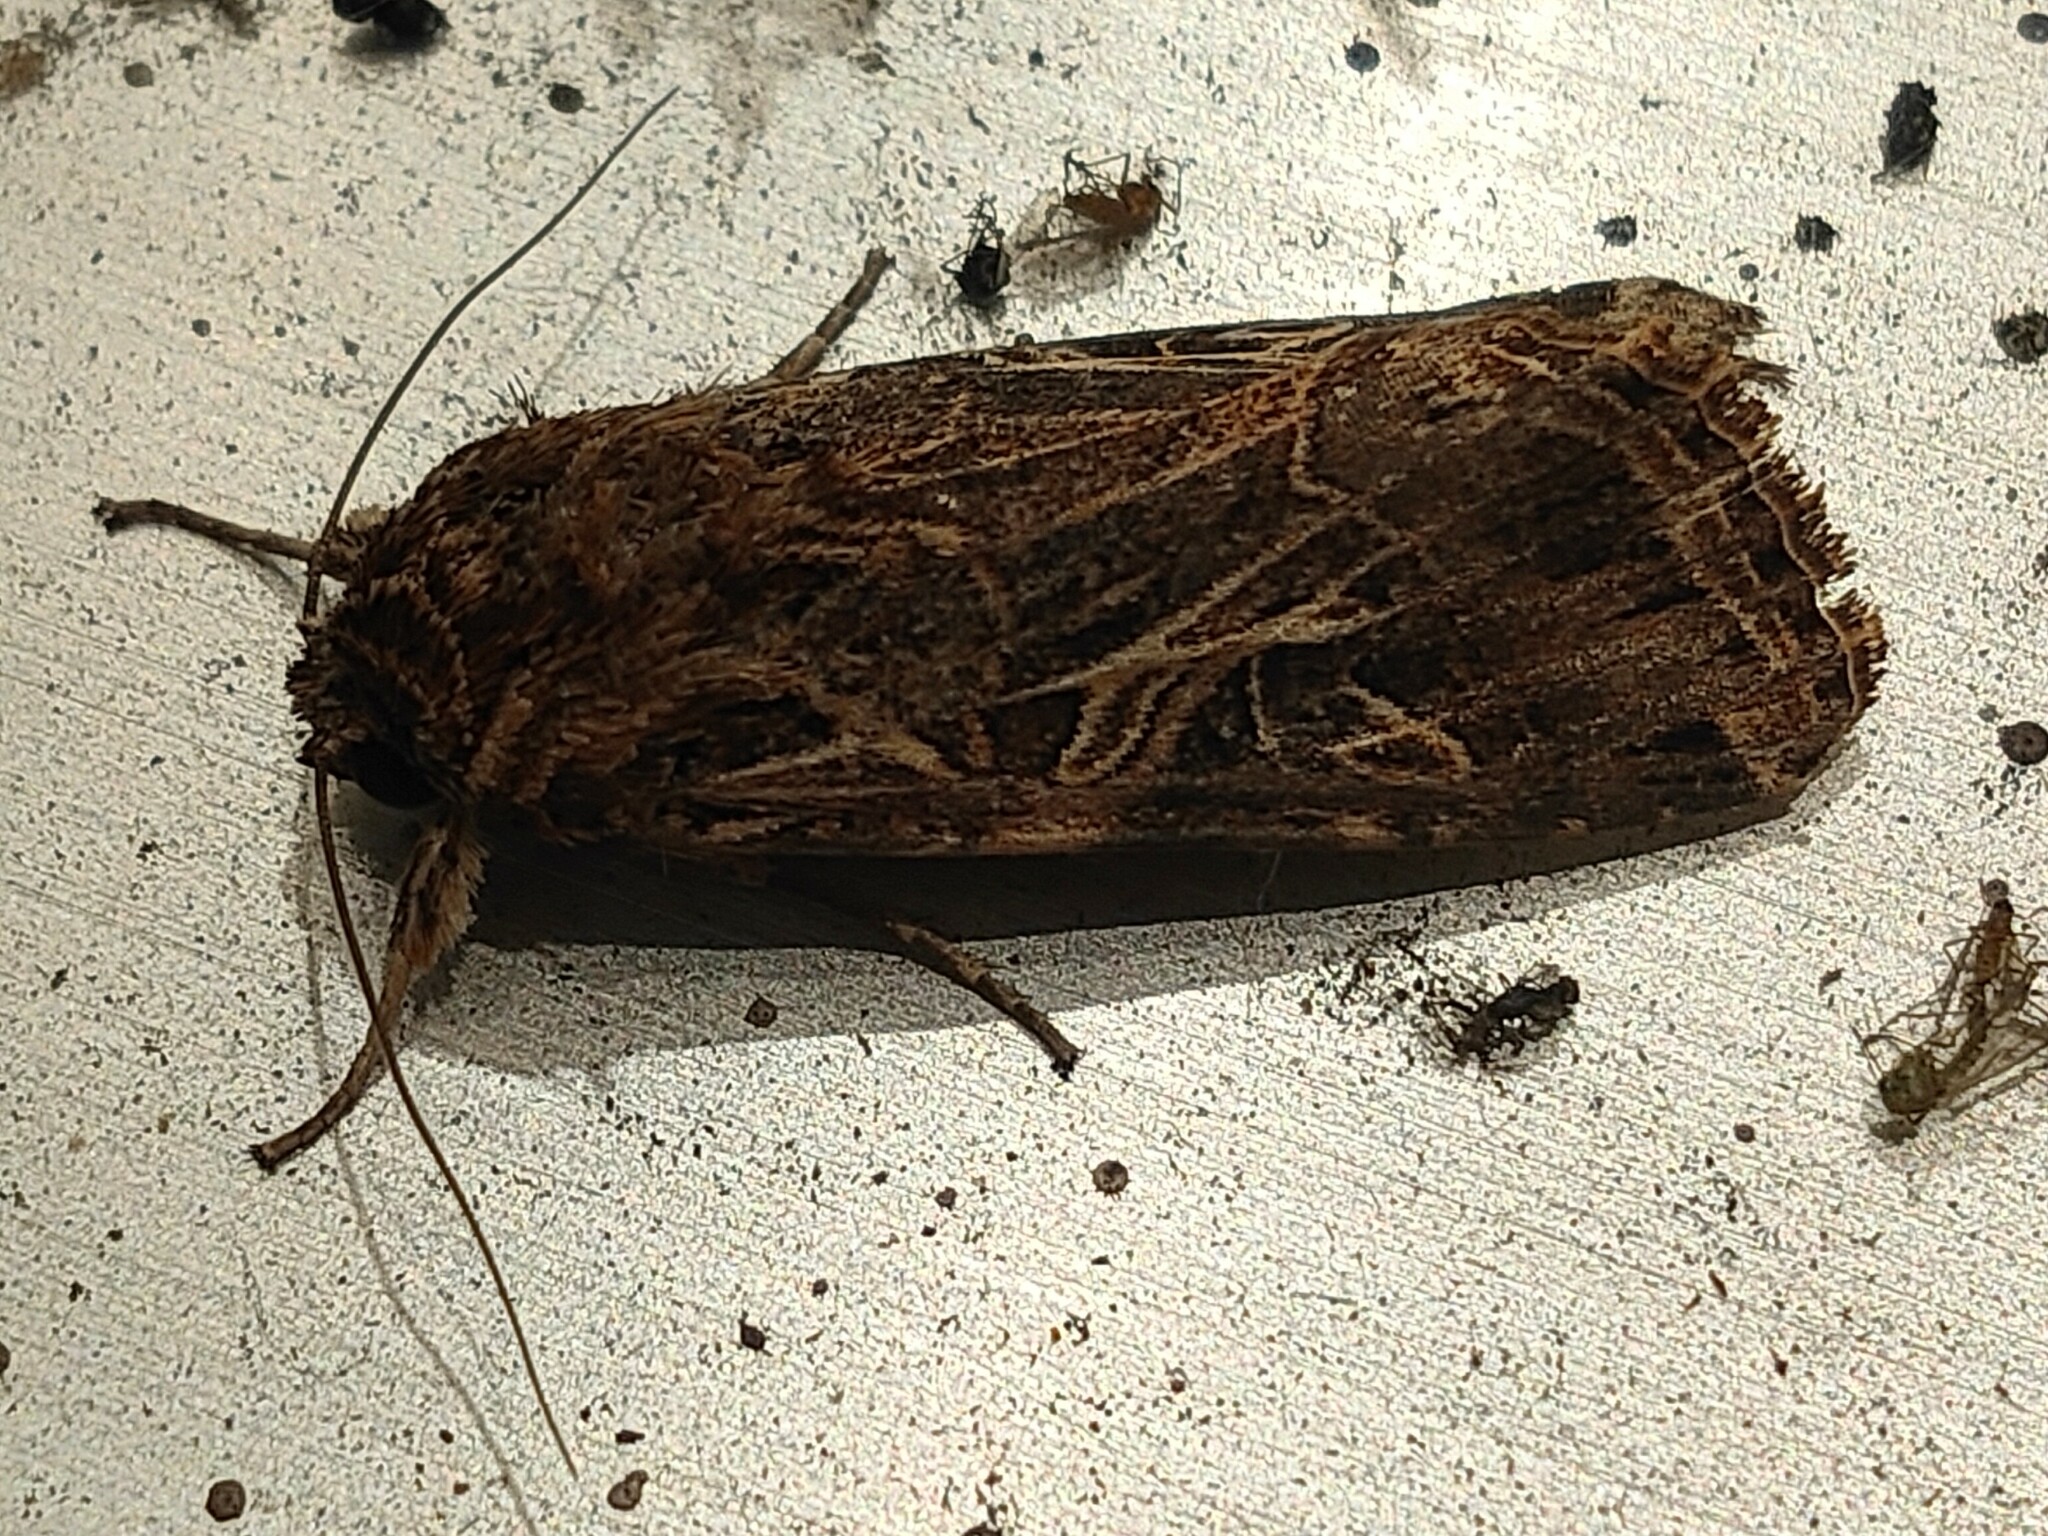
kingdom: Animalia
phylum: Arthropoda
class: Insecta
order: Lepidoptera
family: Noctuidae
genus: Spodoptera
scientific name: Spodoptera litura
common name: Asian cotton leafworm
